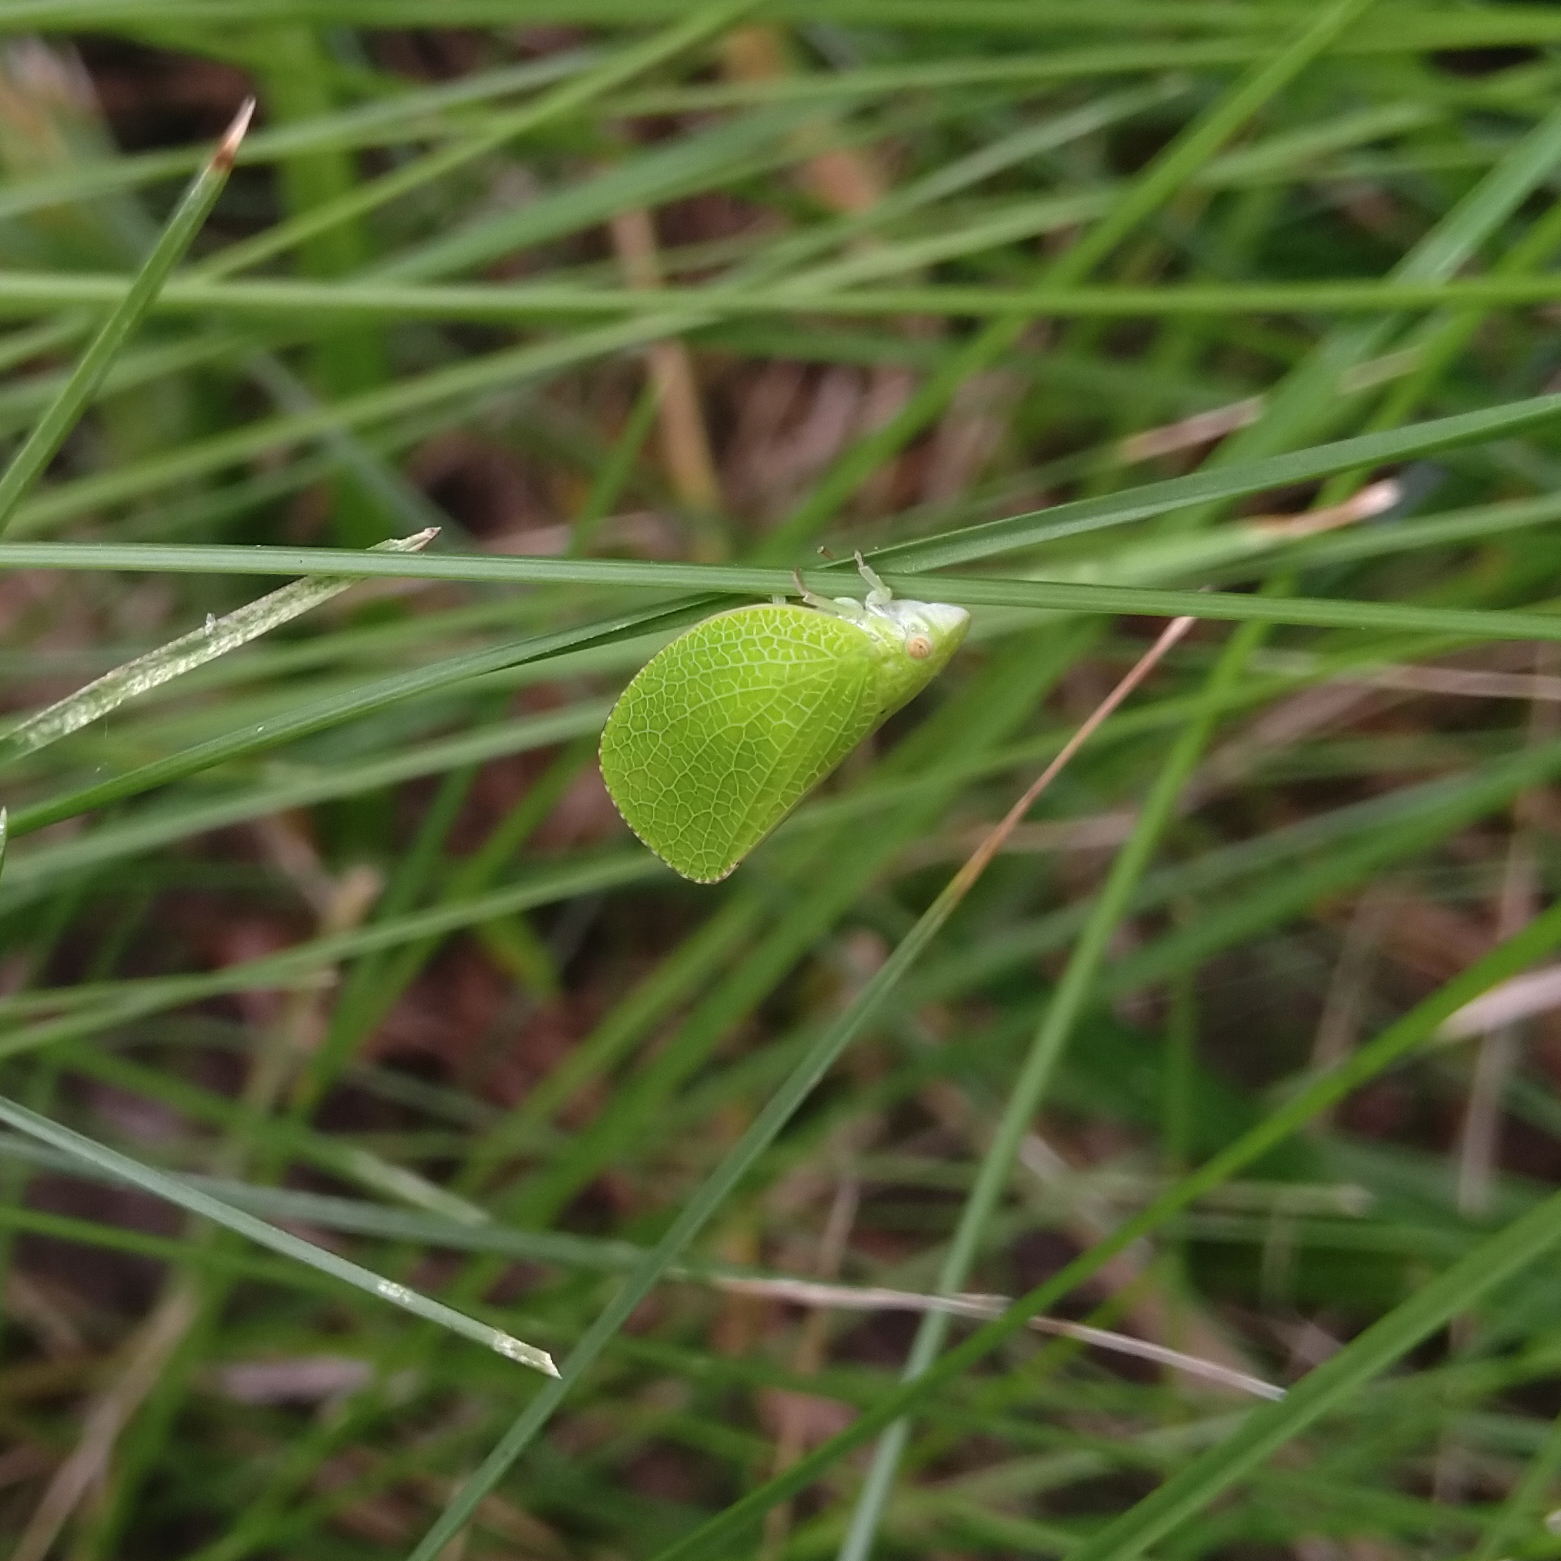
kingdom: Animalia
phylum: Arthropoda
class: Insecta
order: Hemiptera
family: Acanaloniidae
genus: Acanalonia
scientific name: Acanalonia conica
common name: Green cone-headed planthopper
